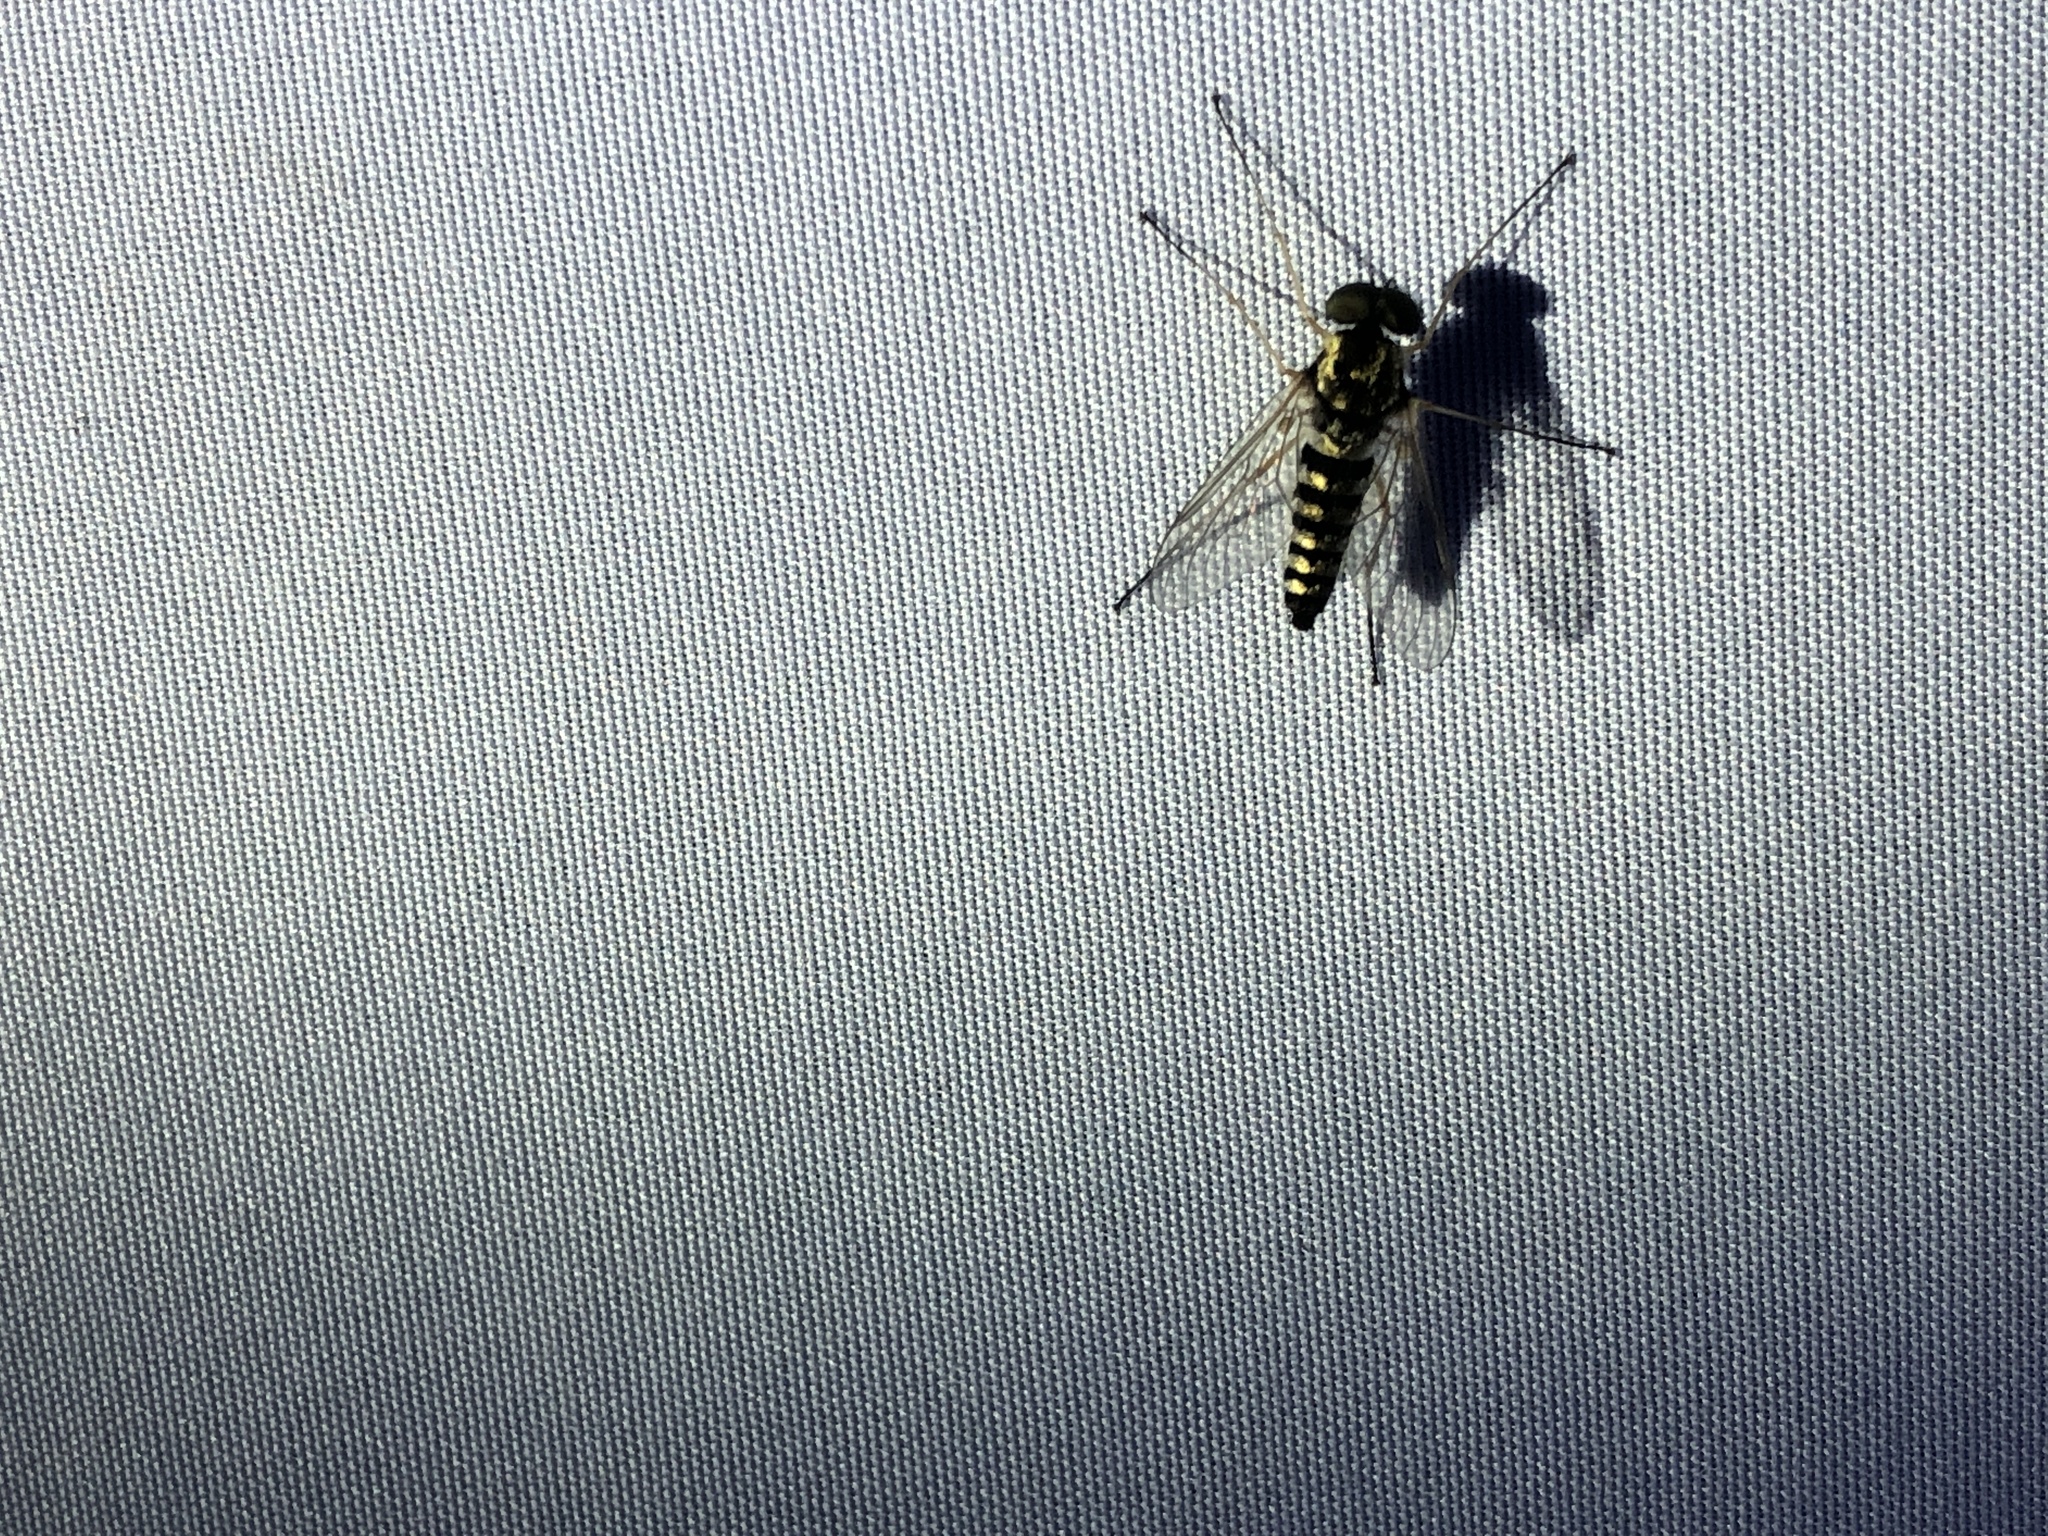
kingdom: Animalia
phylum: Arthropoda
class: Insecta
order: Diptera
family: Rhagionidae
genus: Chrysopilus
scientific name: Chrysopilus ornatus
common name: Ornate snipe fly
